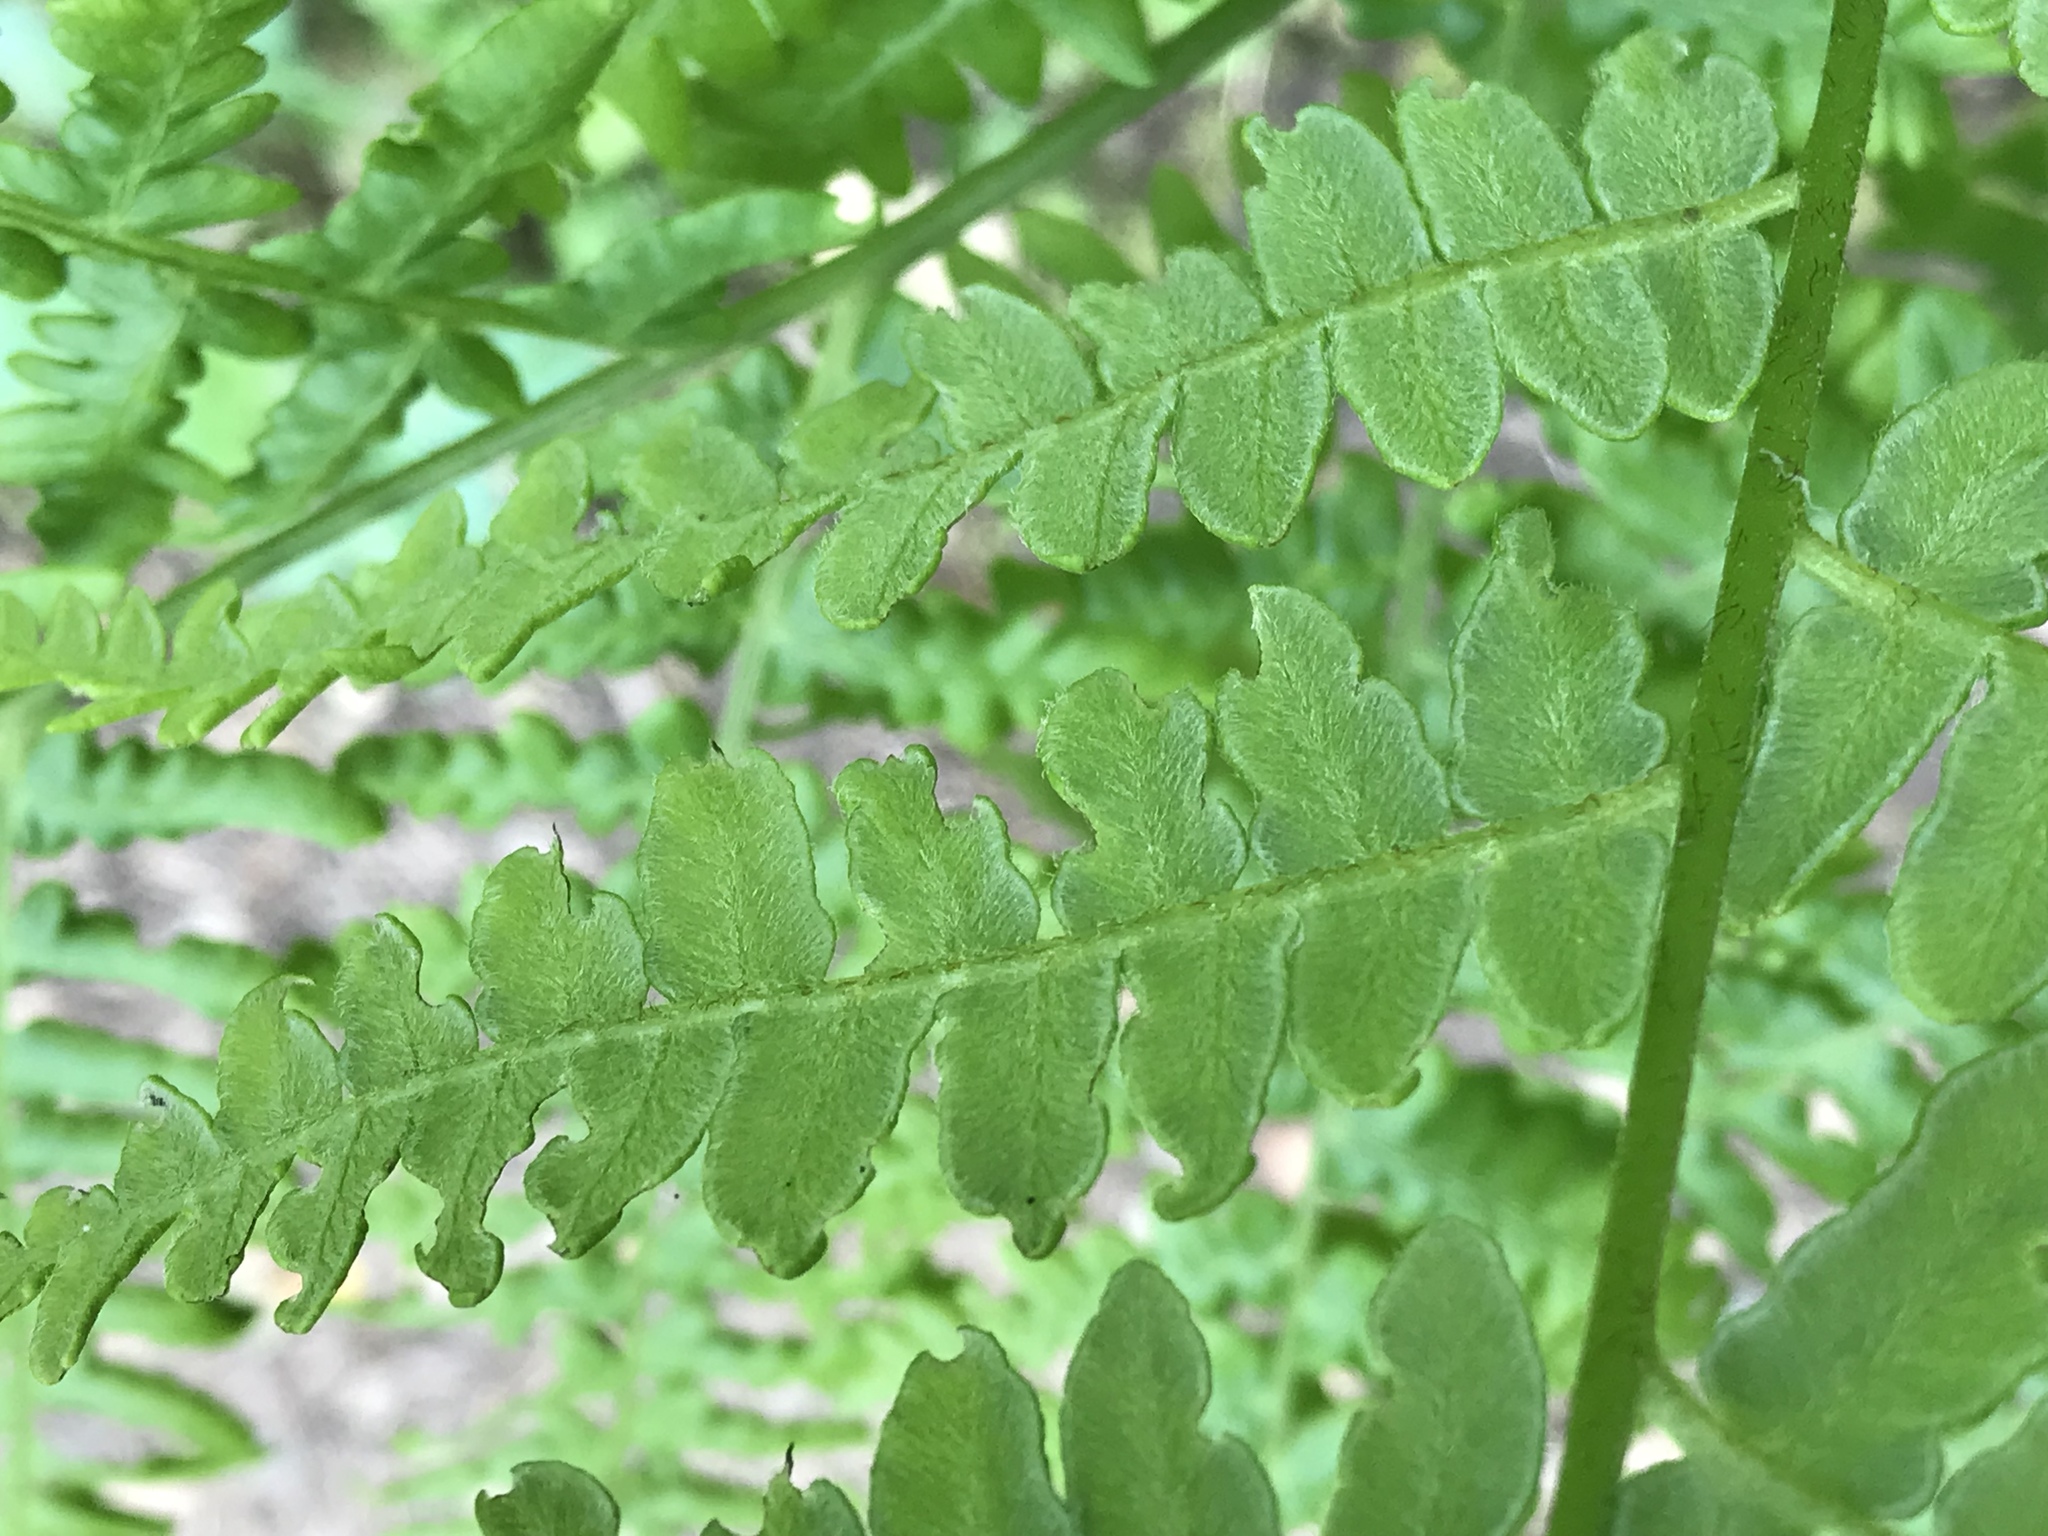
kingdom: Plantae
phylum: Tracheophyta
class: Polypodiopsida
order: Polypodiales
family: Dennstaedtiaceae
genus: Pteridium
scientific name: Pteridium aquilinum
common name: Bracken
